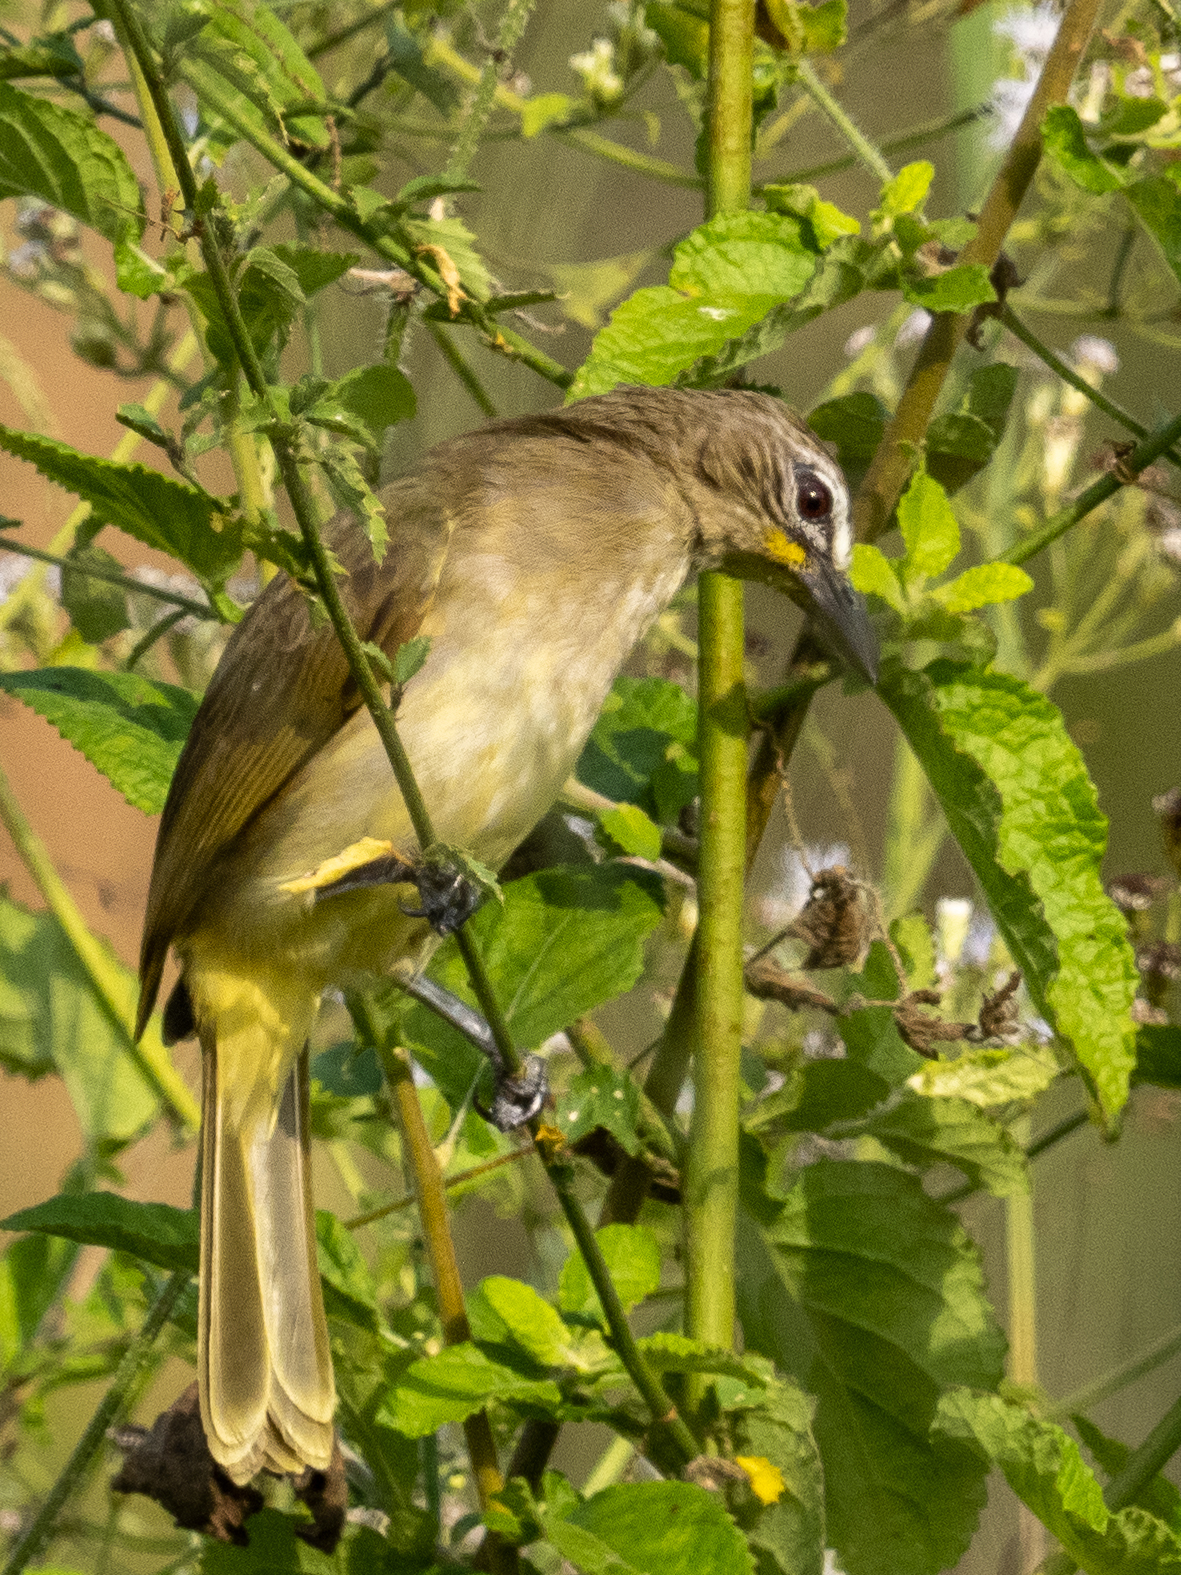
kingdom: Animalia
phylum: Chordata
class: Aves
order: Passeriformes
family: Pycnonotidae
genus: Pycnonotus
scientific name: Pycnonotus luteolus
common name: White-browed bulbul
